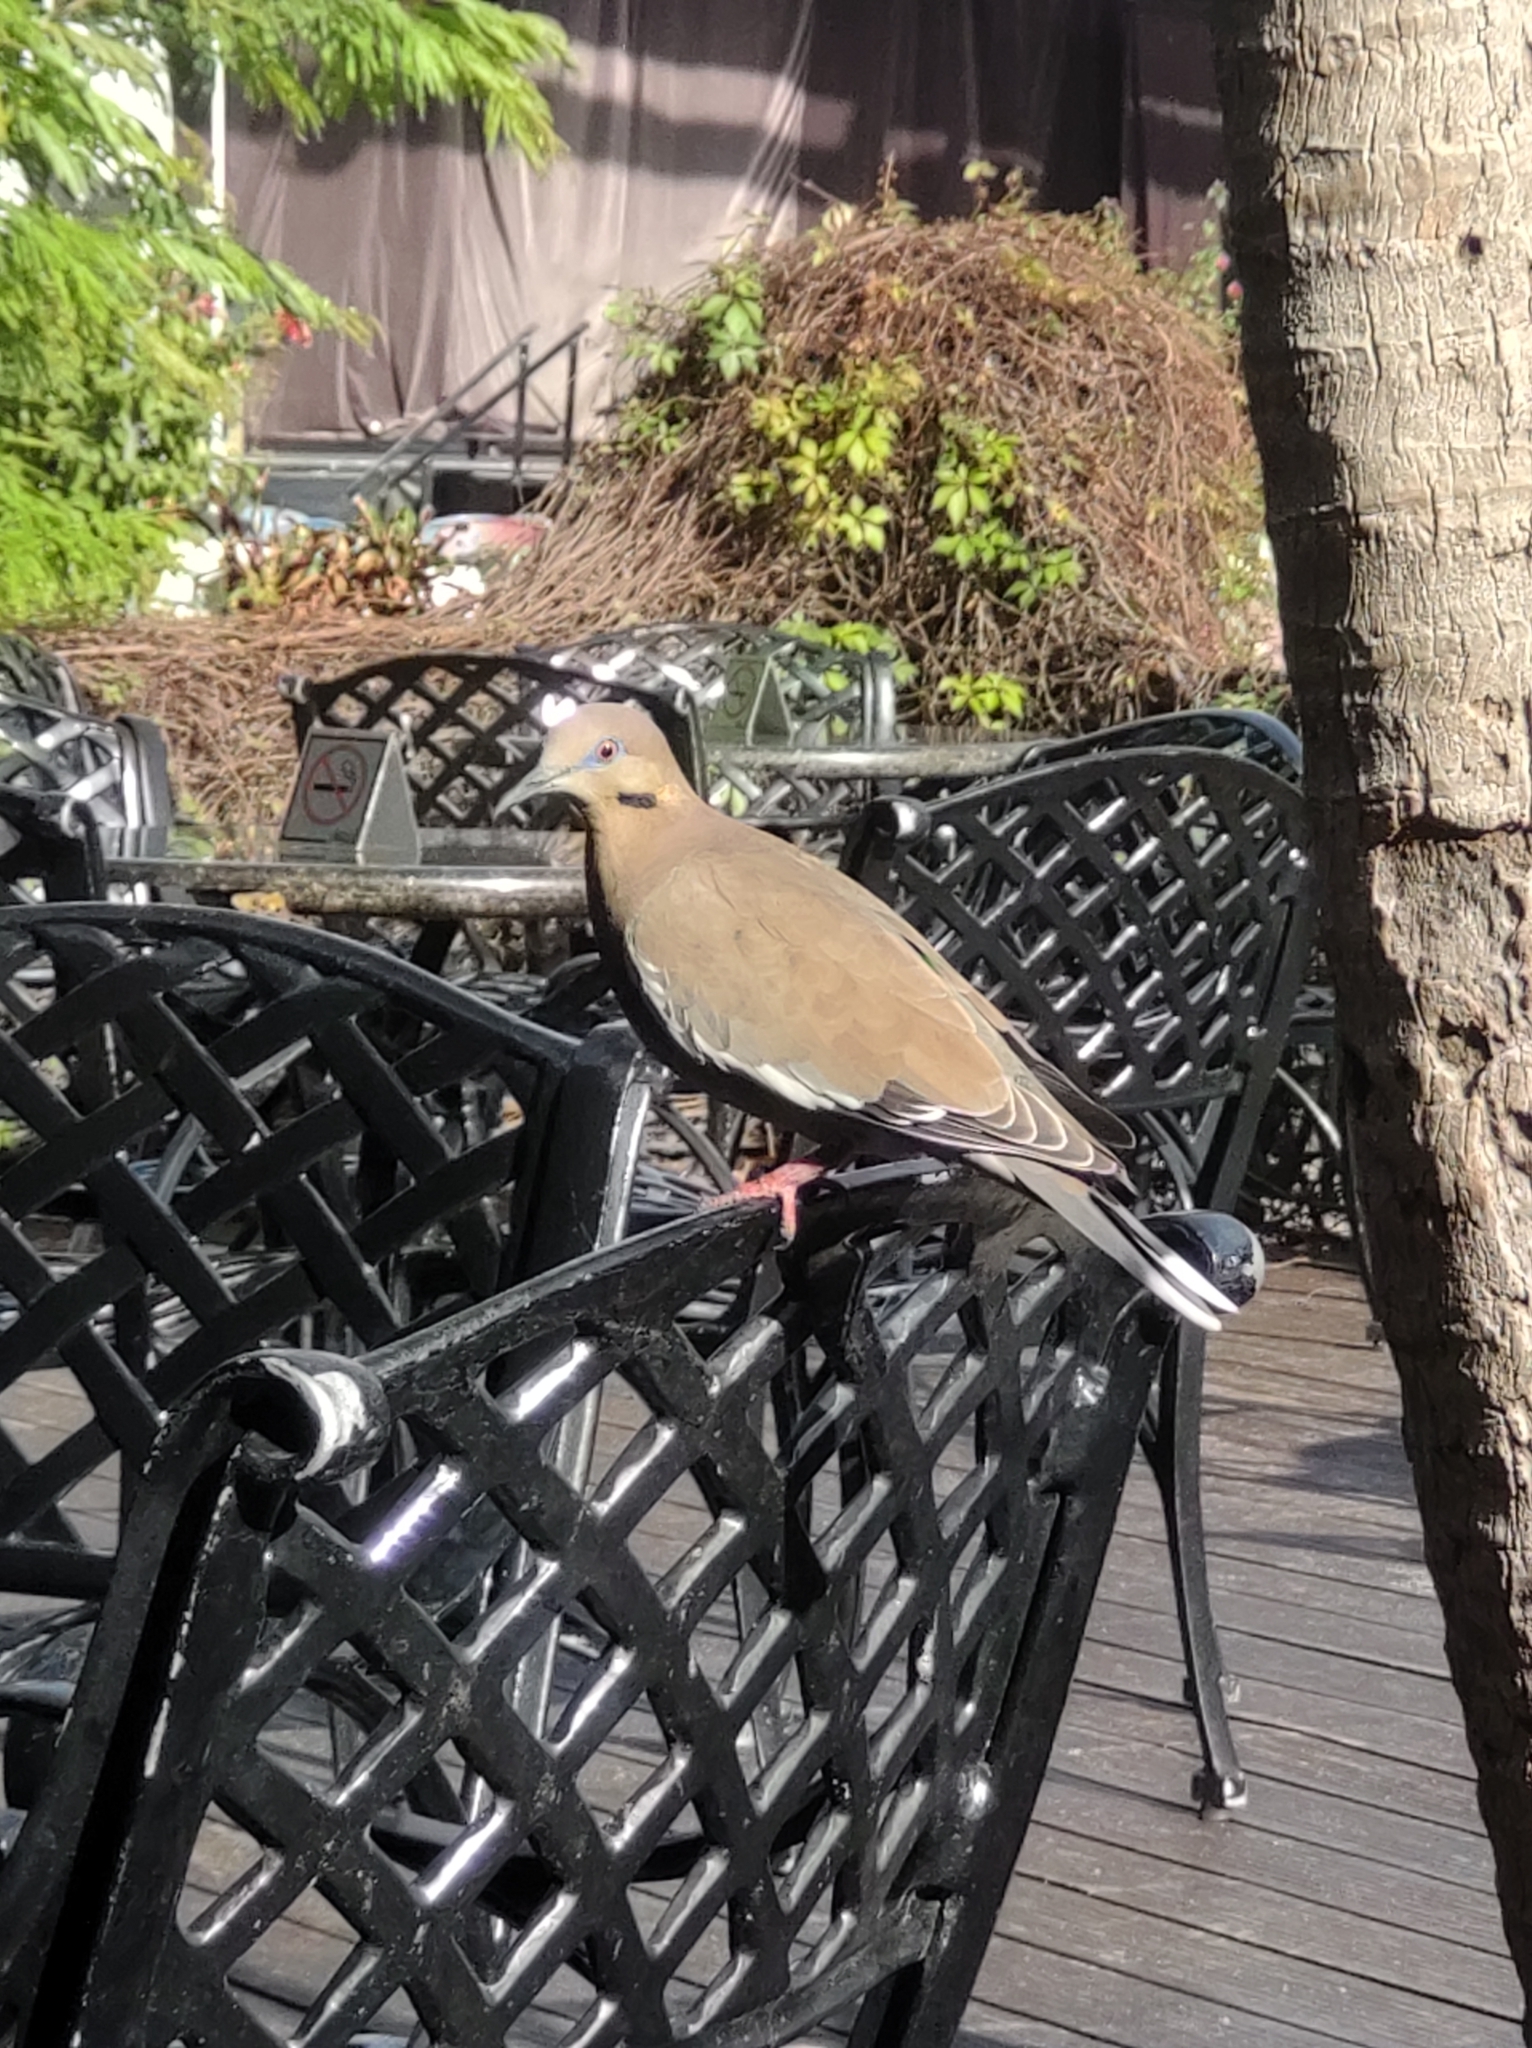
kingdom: Animalia
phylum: Chordata
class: Aves
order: Columbiformes
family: Columbidae
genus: Zenaida
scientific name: Zenaida asiatica
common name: White-winged dove
